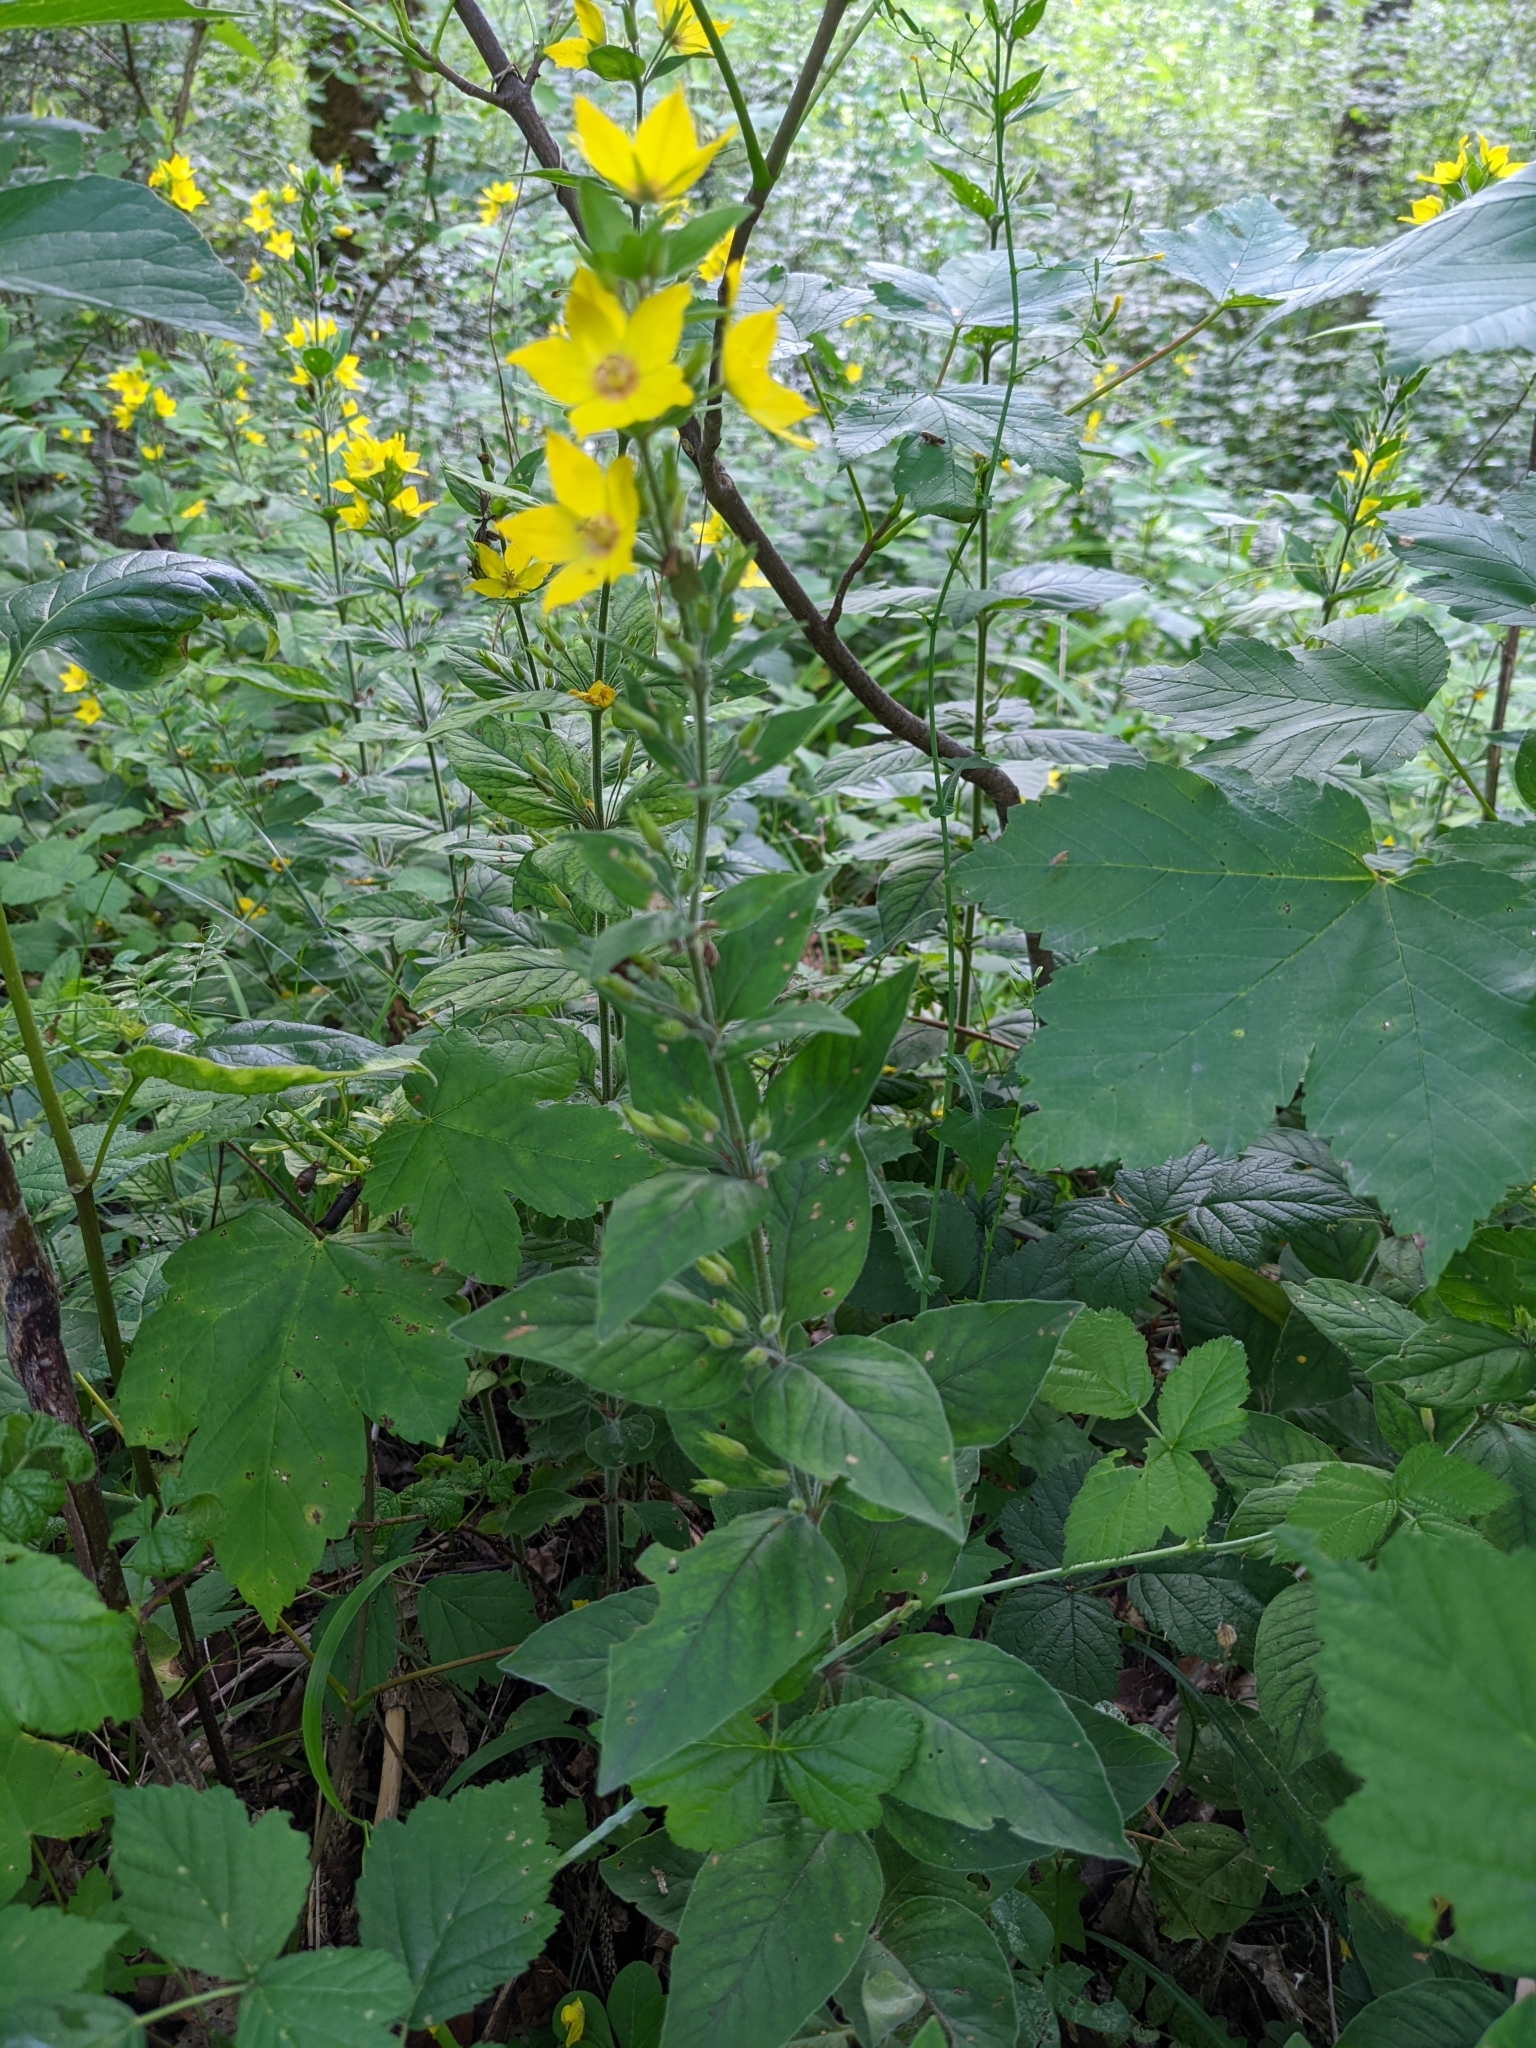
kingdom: Plantae
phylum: Tracheophyta
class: Magnoliopsida
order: Ericales
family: Primulaceae
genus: Lysimachia
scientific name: Lysimachia punctata
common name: Dotted loosestrife
